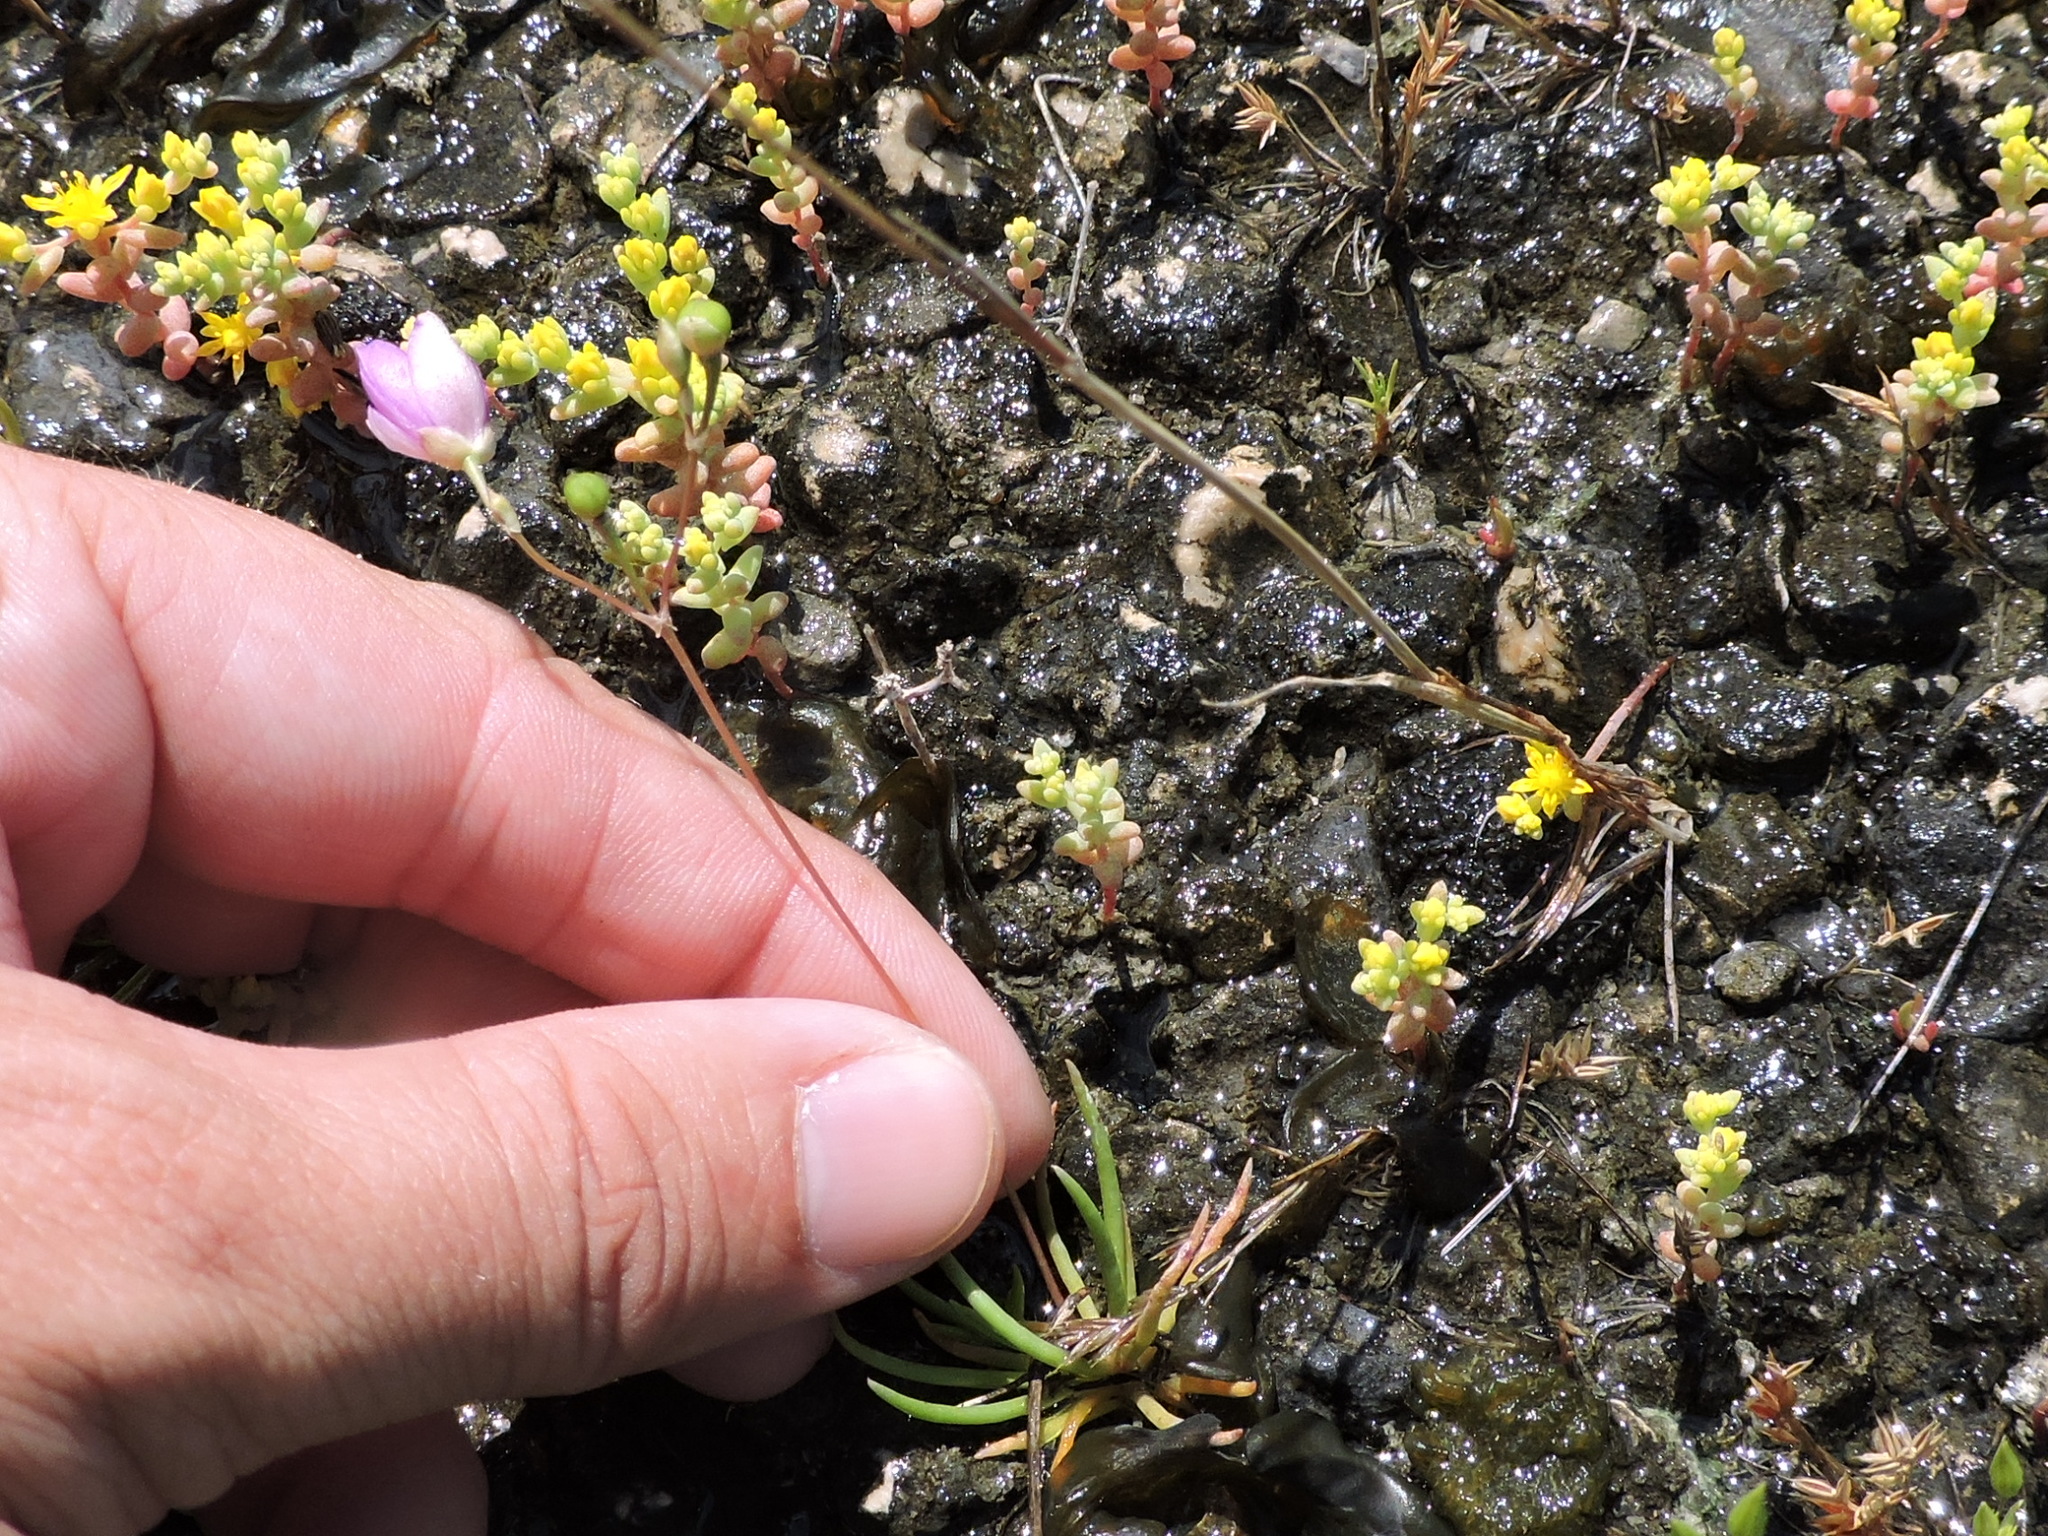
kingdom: Plantae
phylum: Tracheophyta
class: Magnoliopsida
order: Caryophyllales
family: Montiaceae
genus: Phemeranthus
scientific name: Phemeranthus calcaricus
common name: Limestone fameflower
